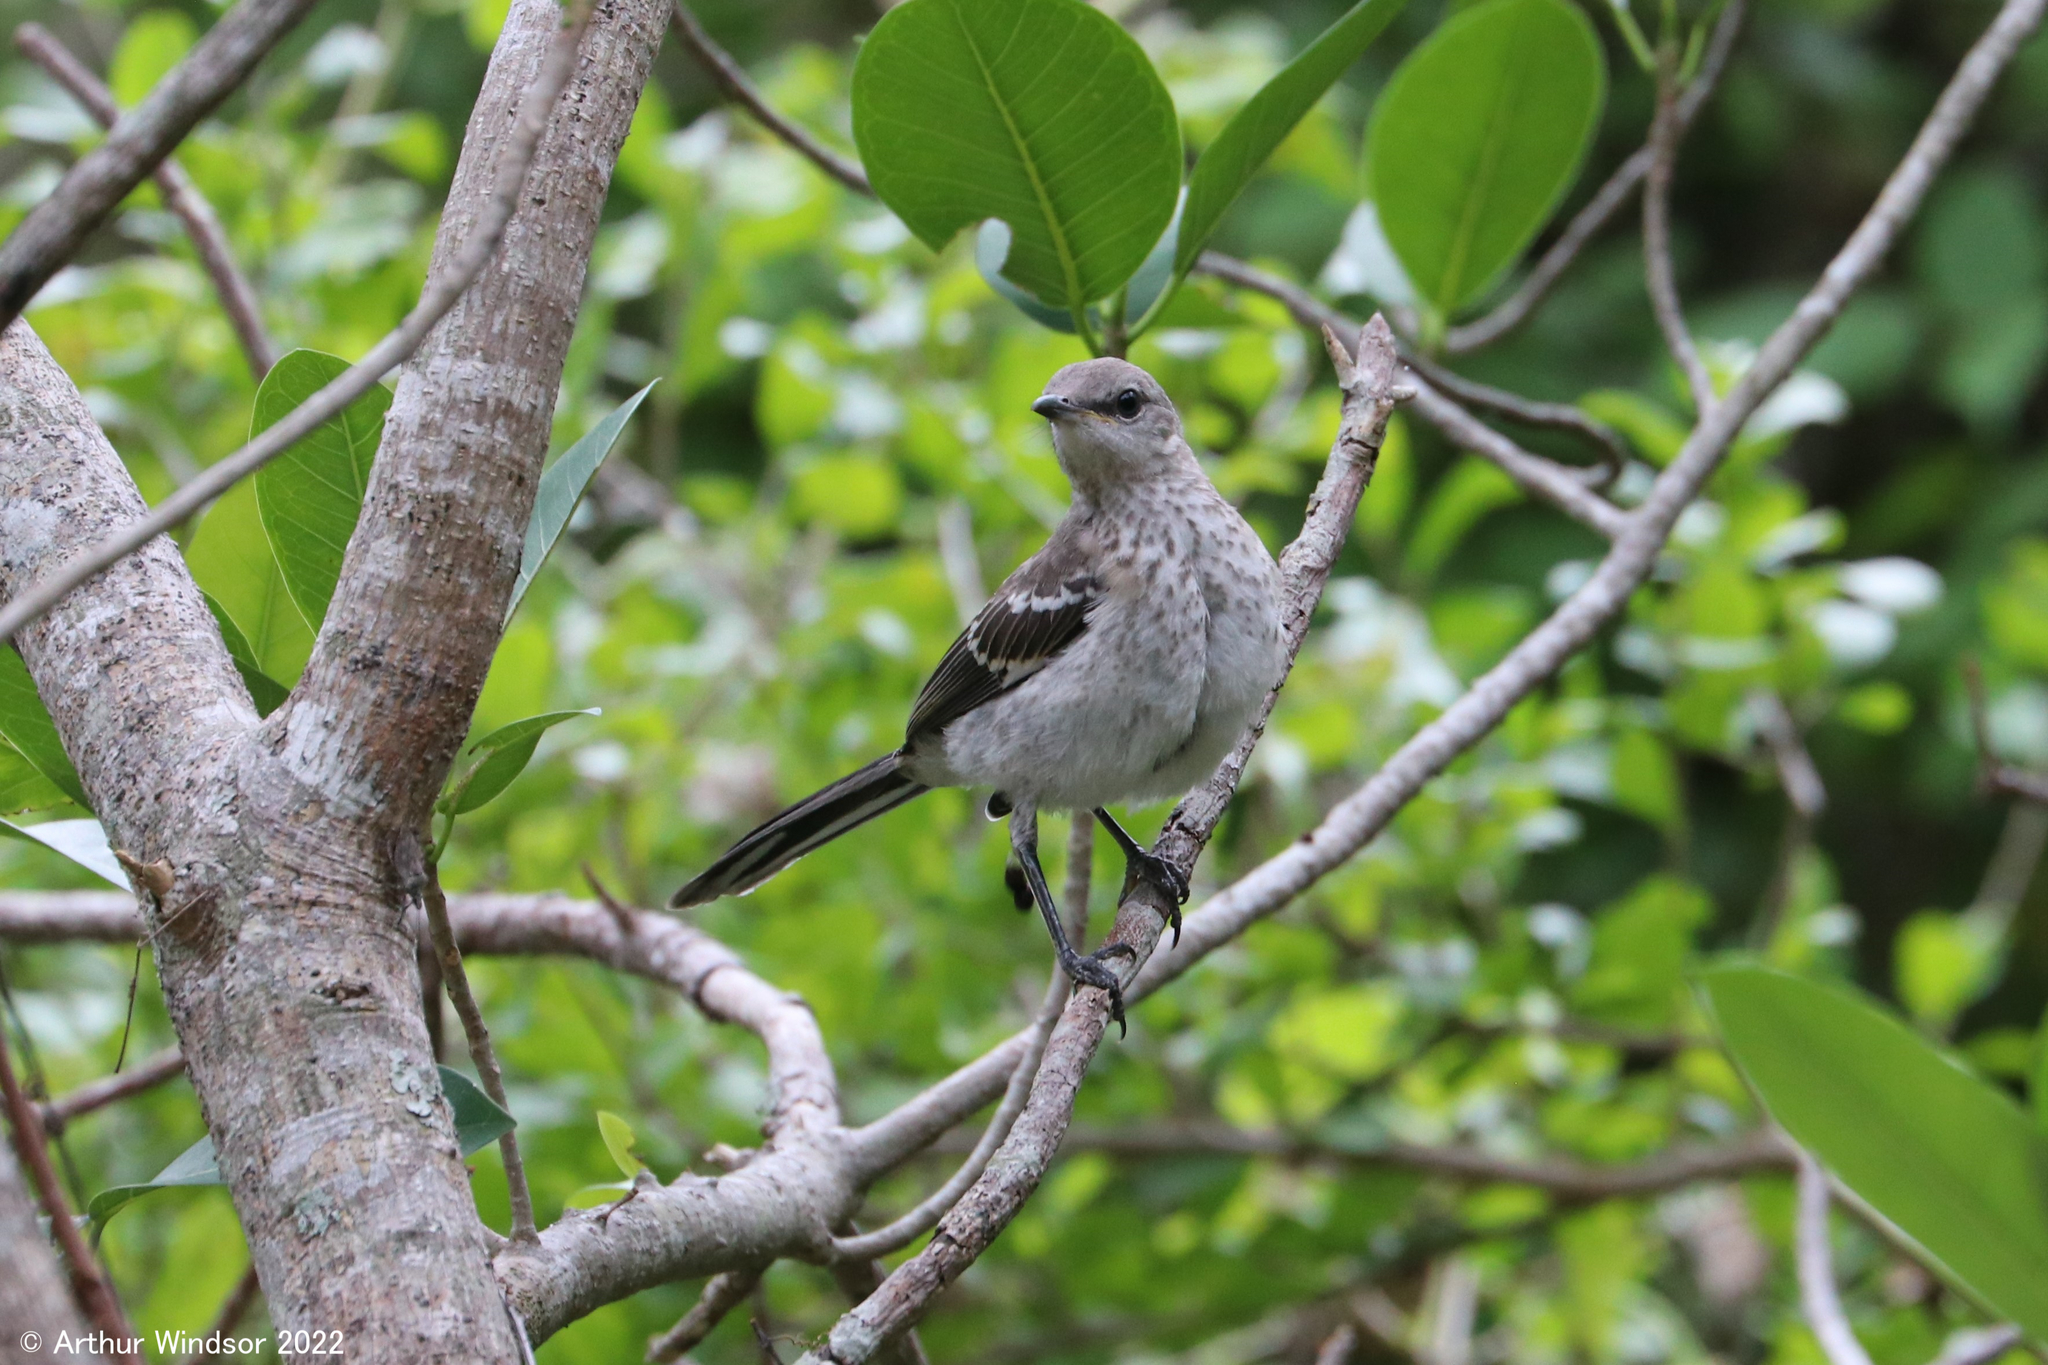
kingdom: Animalia
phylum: Chordata
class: Aves
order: Passeriformes
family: Mimidae
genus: Mimus
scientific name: Mimus polyglottos
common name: Northern mockingbird
